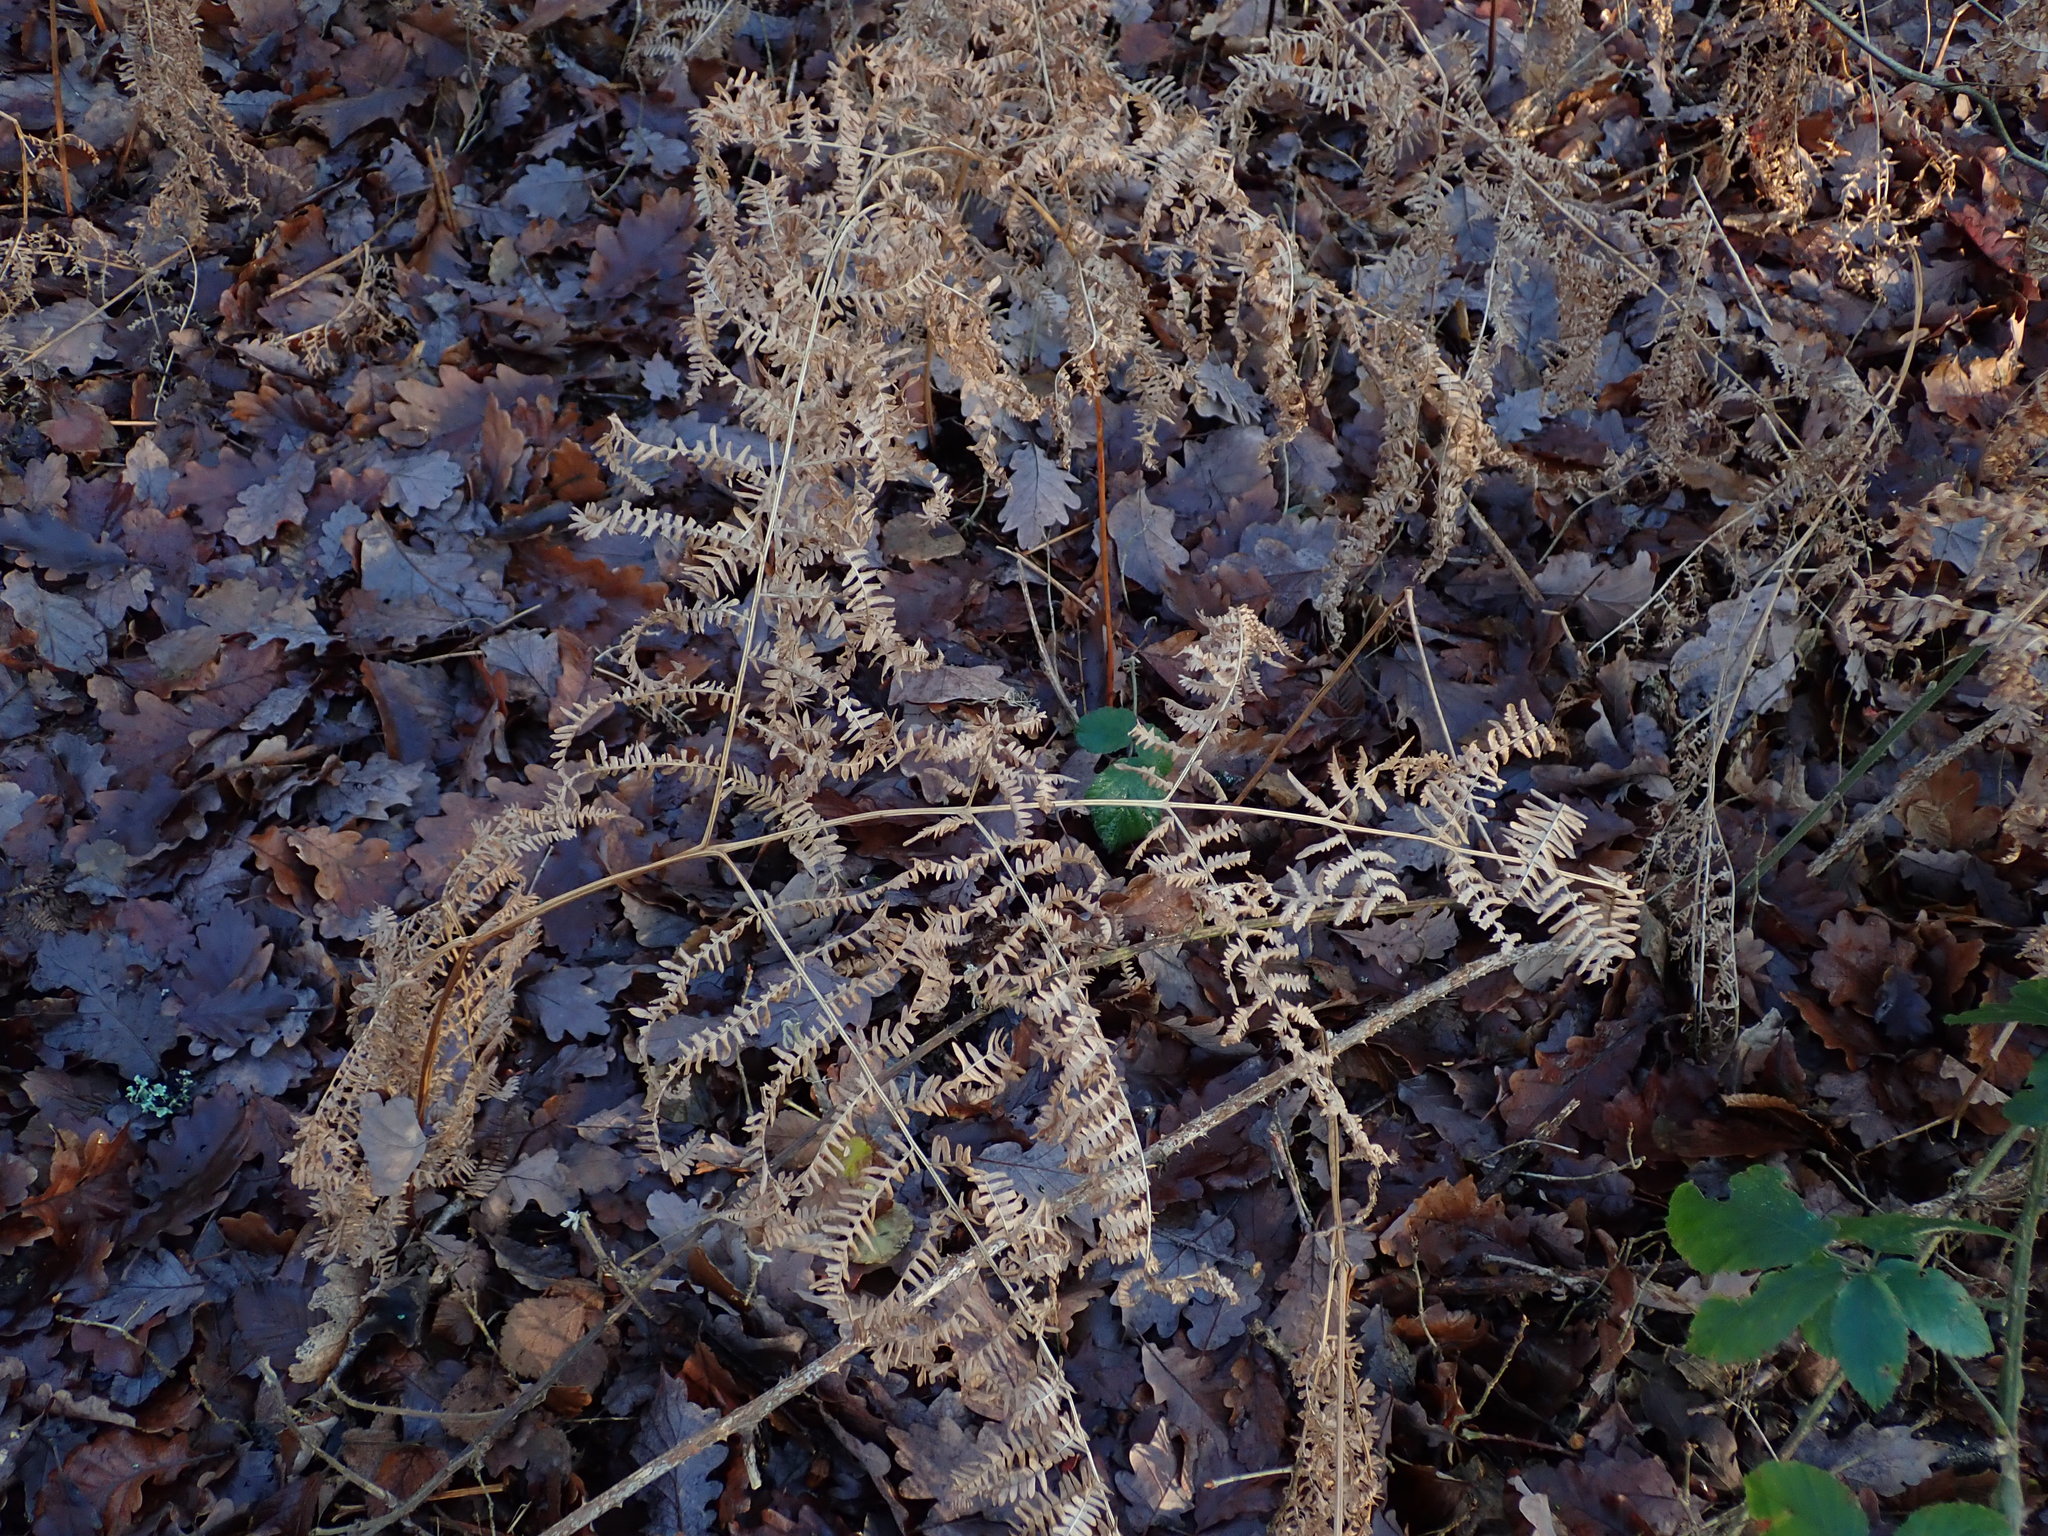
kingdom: Plantae
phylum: Tracheophyta
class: Polypodiopsida
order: Polypodiales
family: Dennstaedtiaceae
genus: Pteridium
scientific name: Pteridium aquilinum
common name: Bracken
